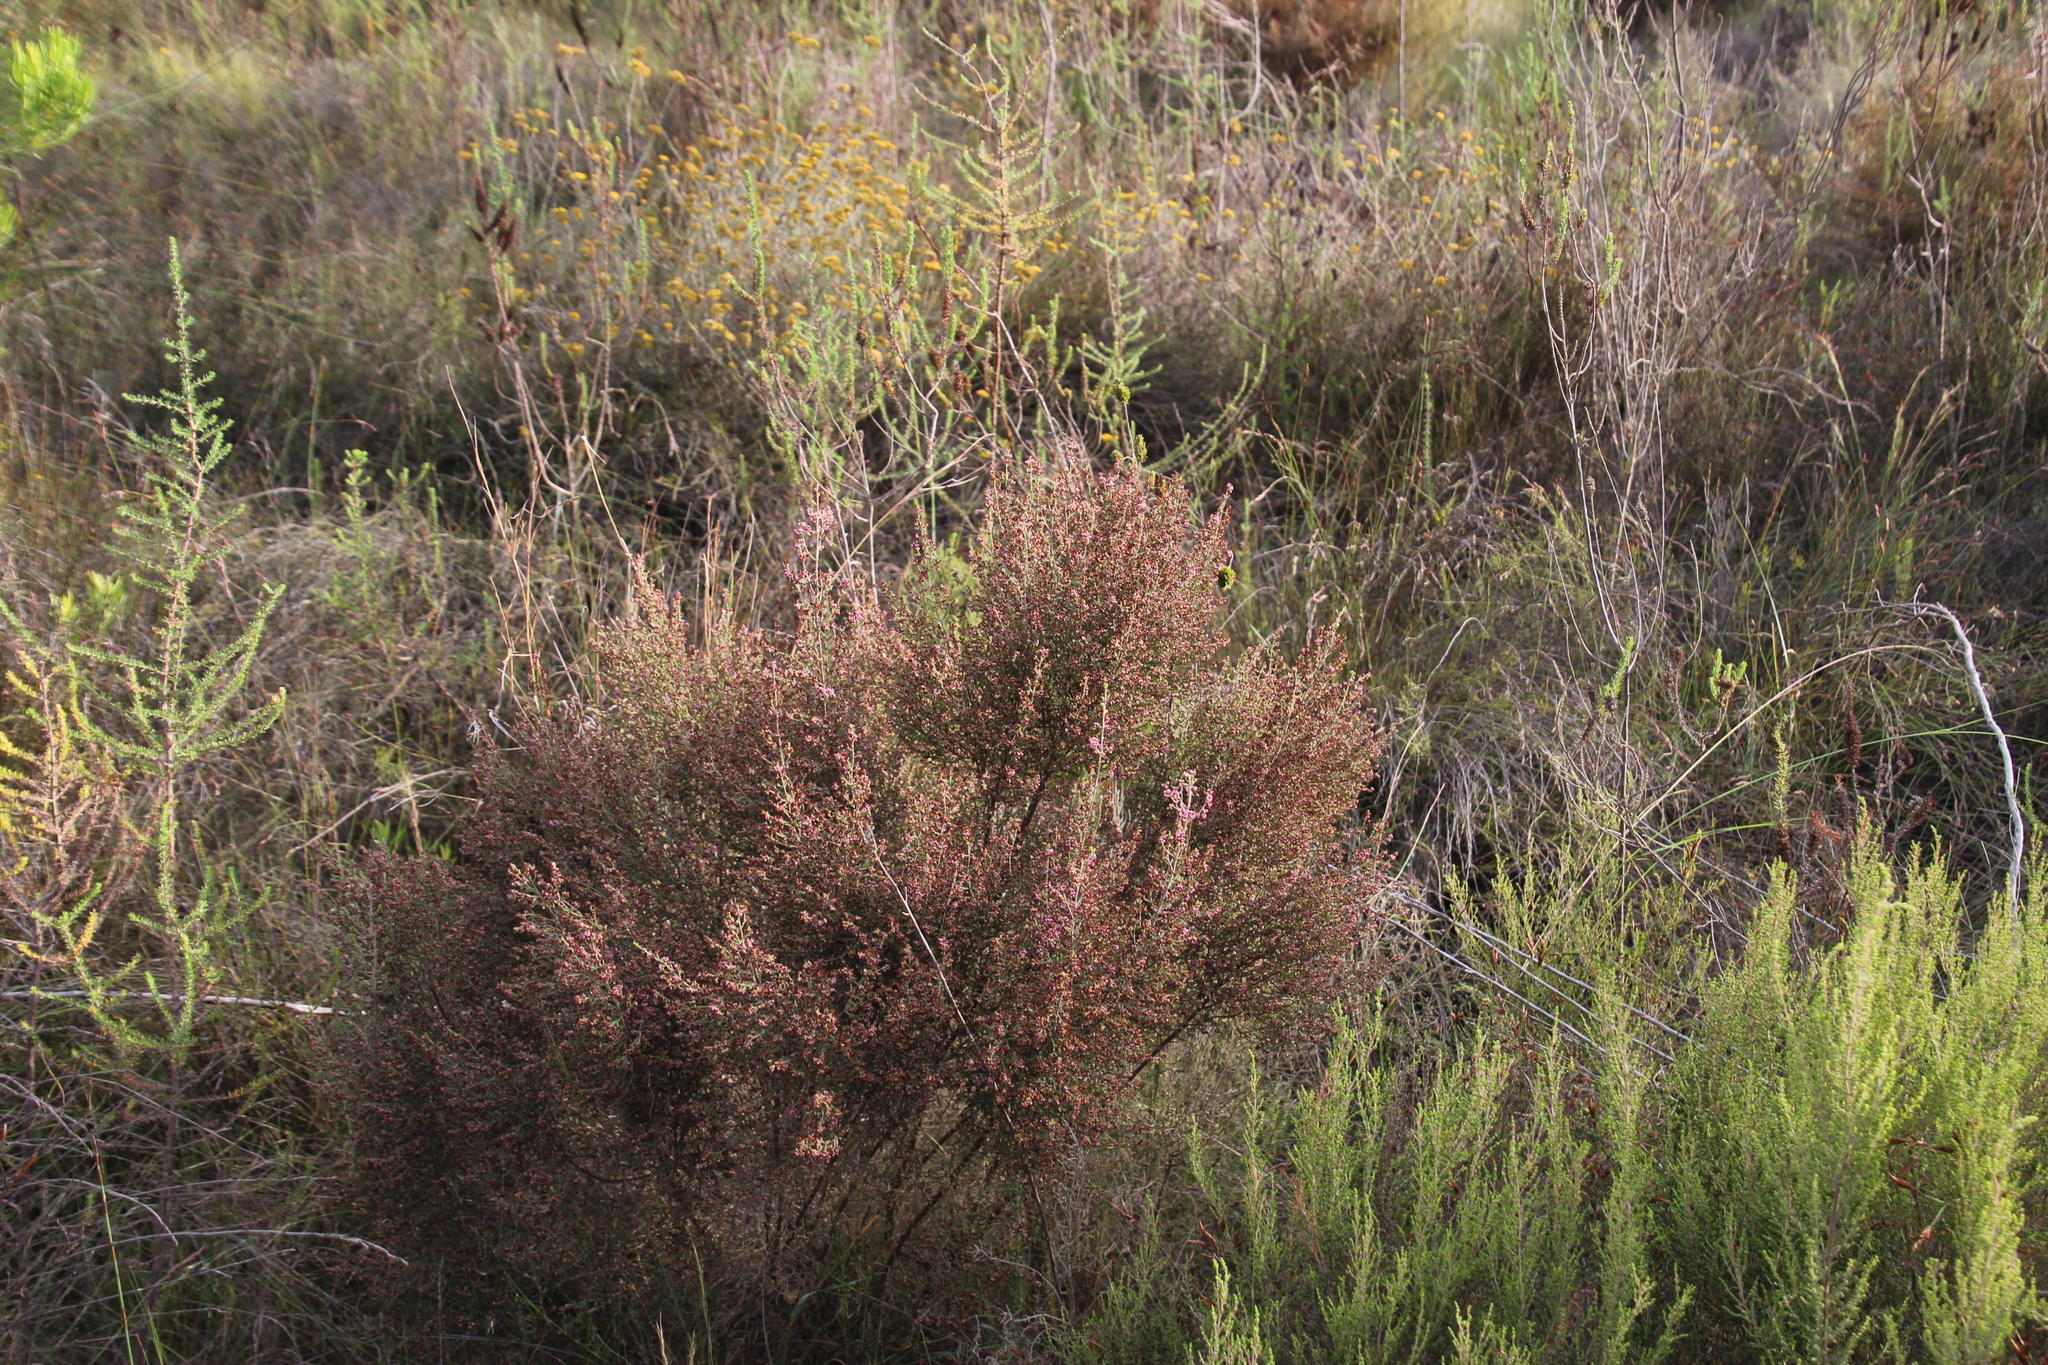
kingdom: Plantae
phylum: Tracheophyta
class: Magnoliopsida
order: Ericales
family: Ericaceae
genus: Erica
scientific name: Erica peltata
